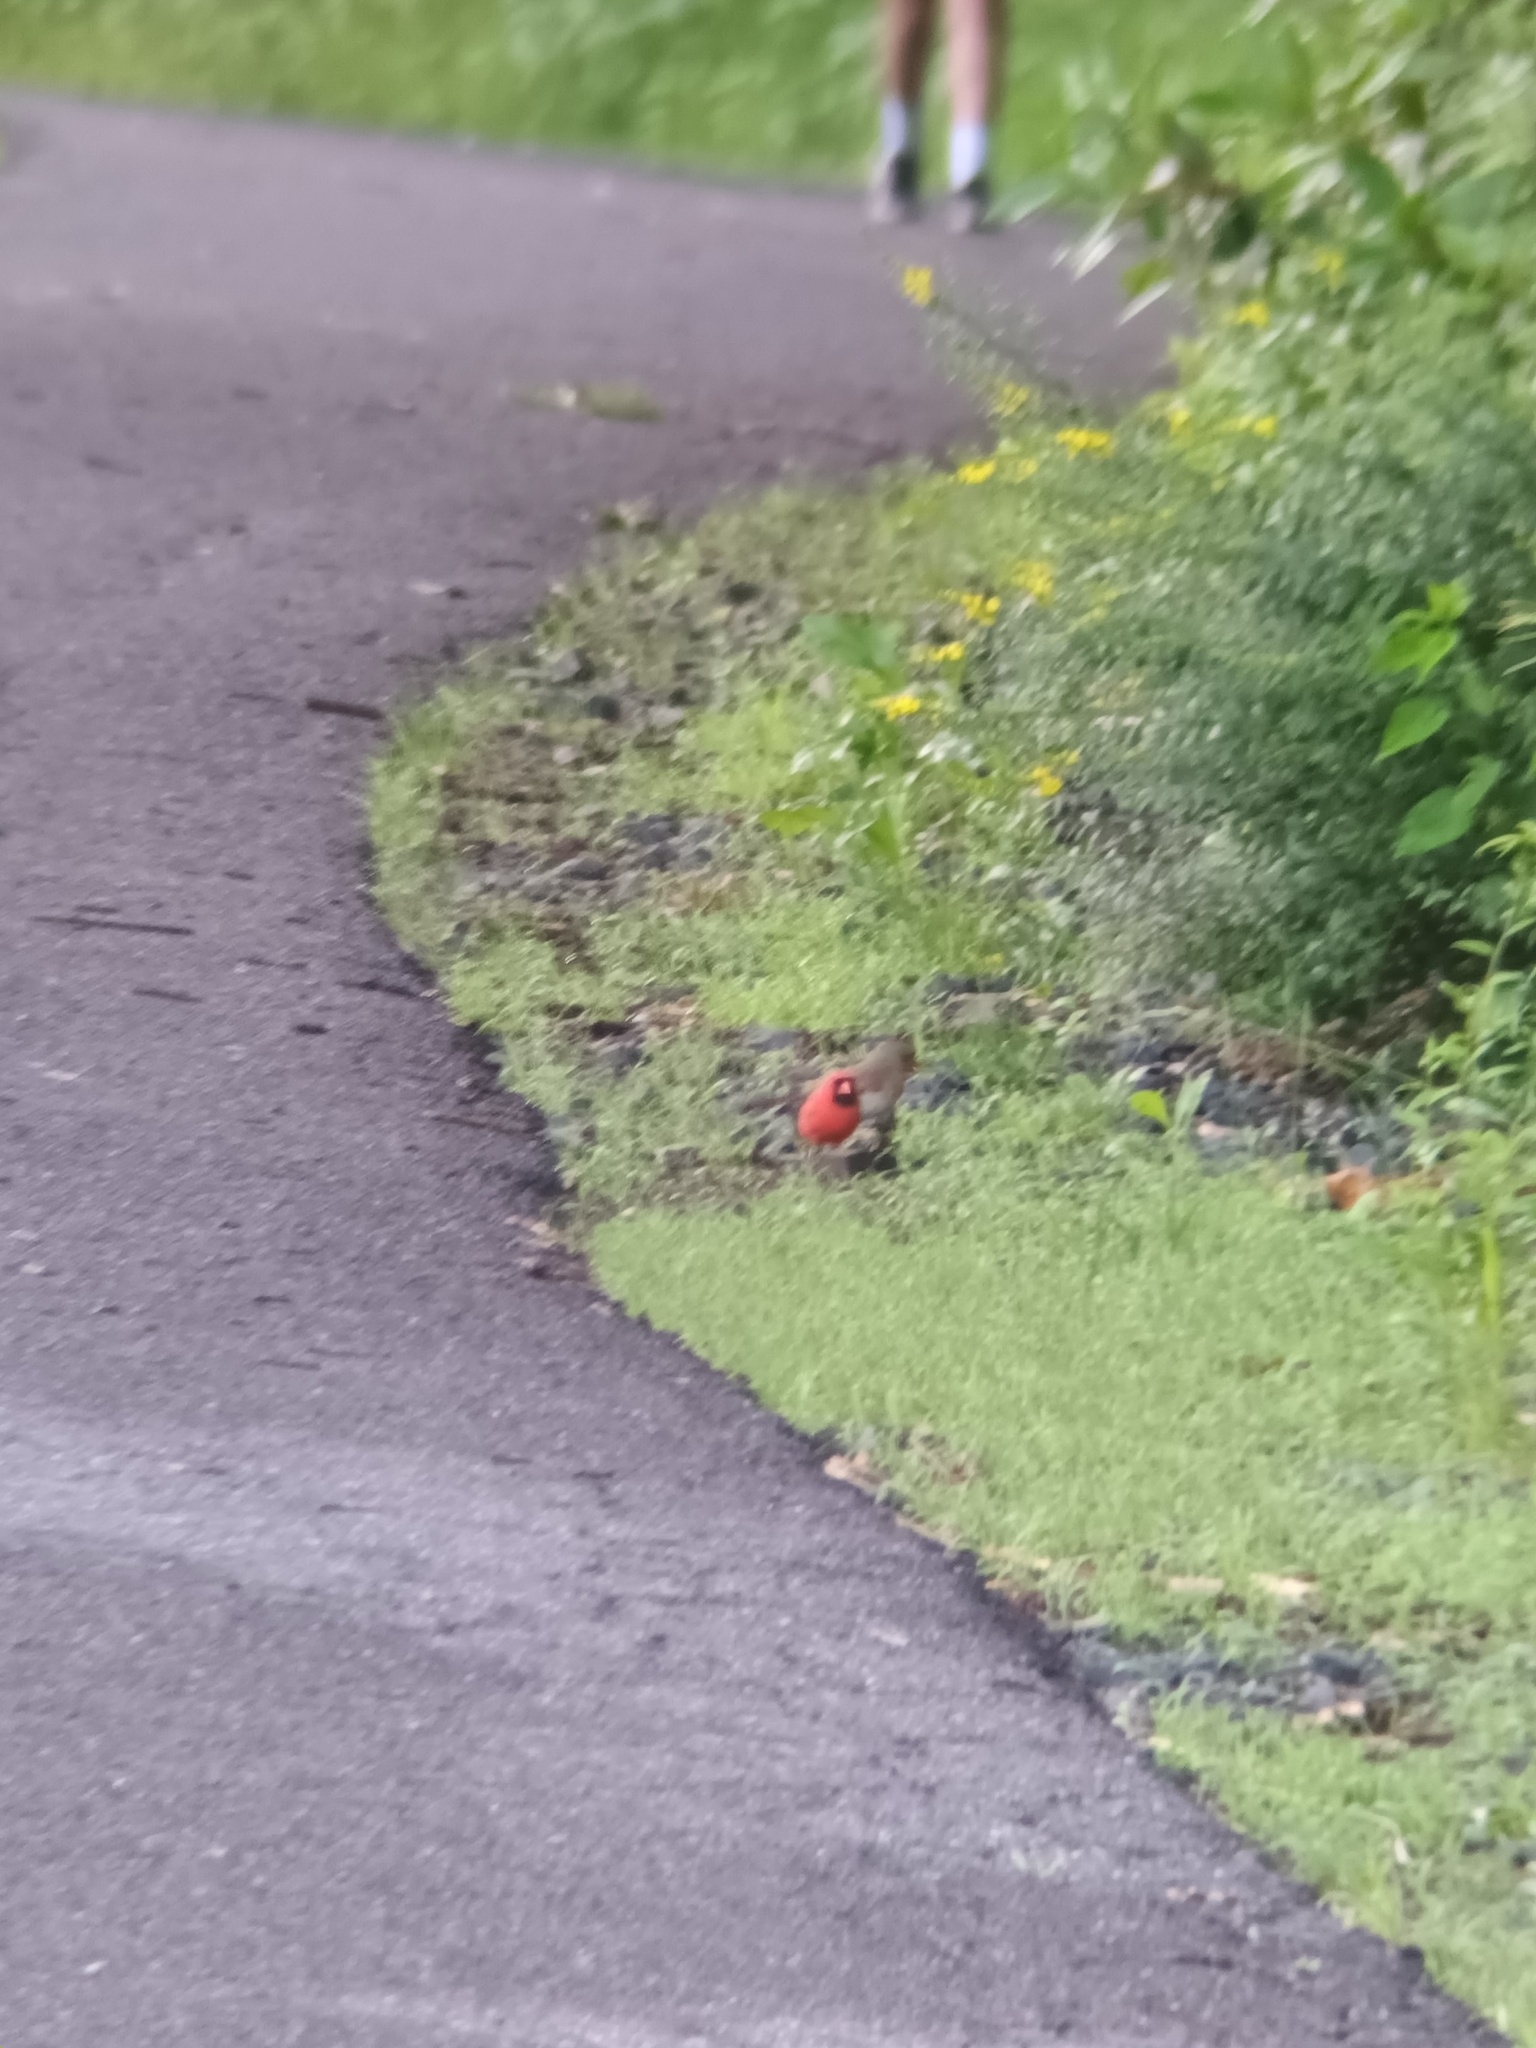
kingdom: Animalia
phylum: Chordata
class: Aves
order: Passeriformes
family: Cardinalidae
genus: Cardinalis
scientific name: Cardinalis cardinalis
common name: Northern cardinal
